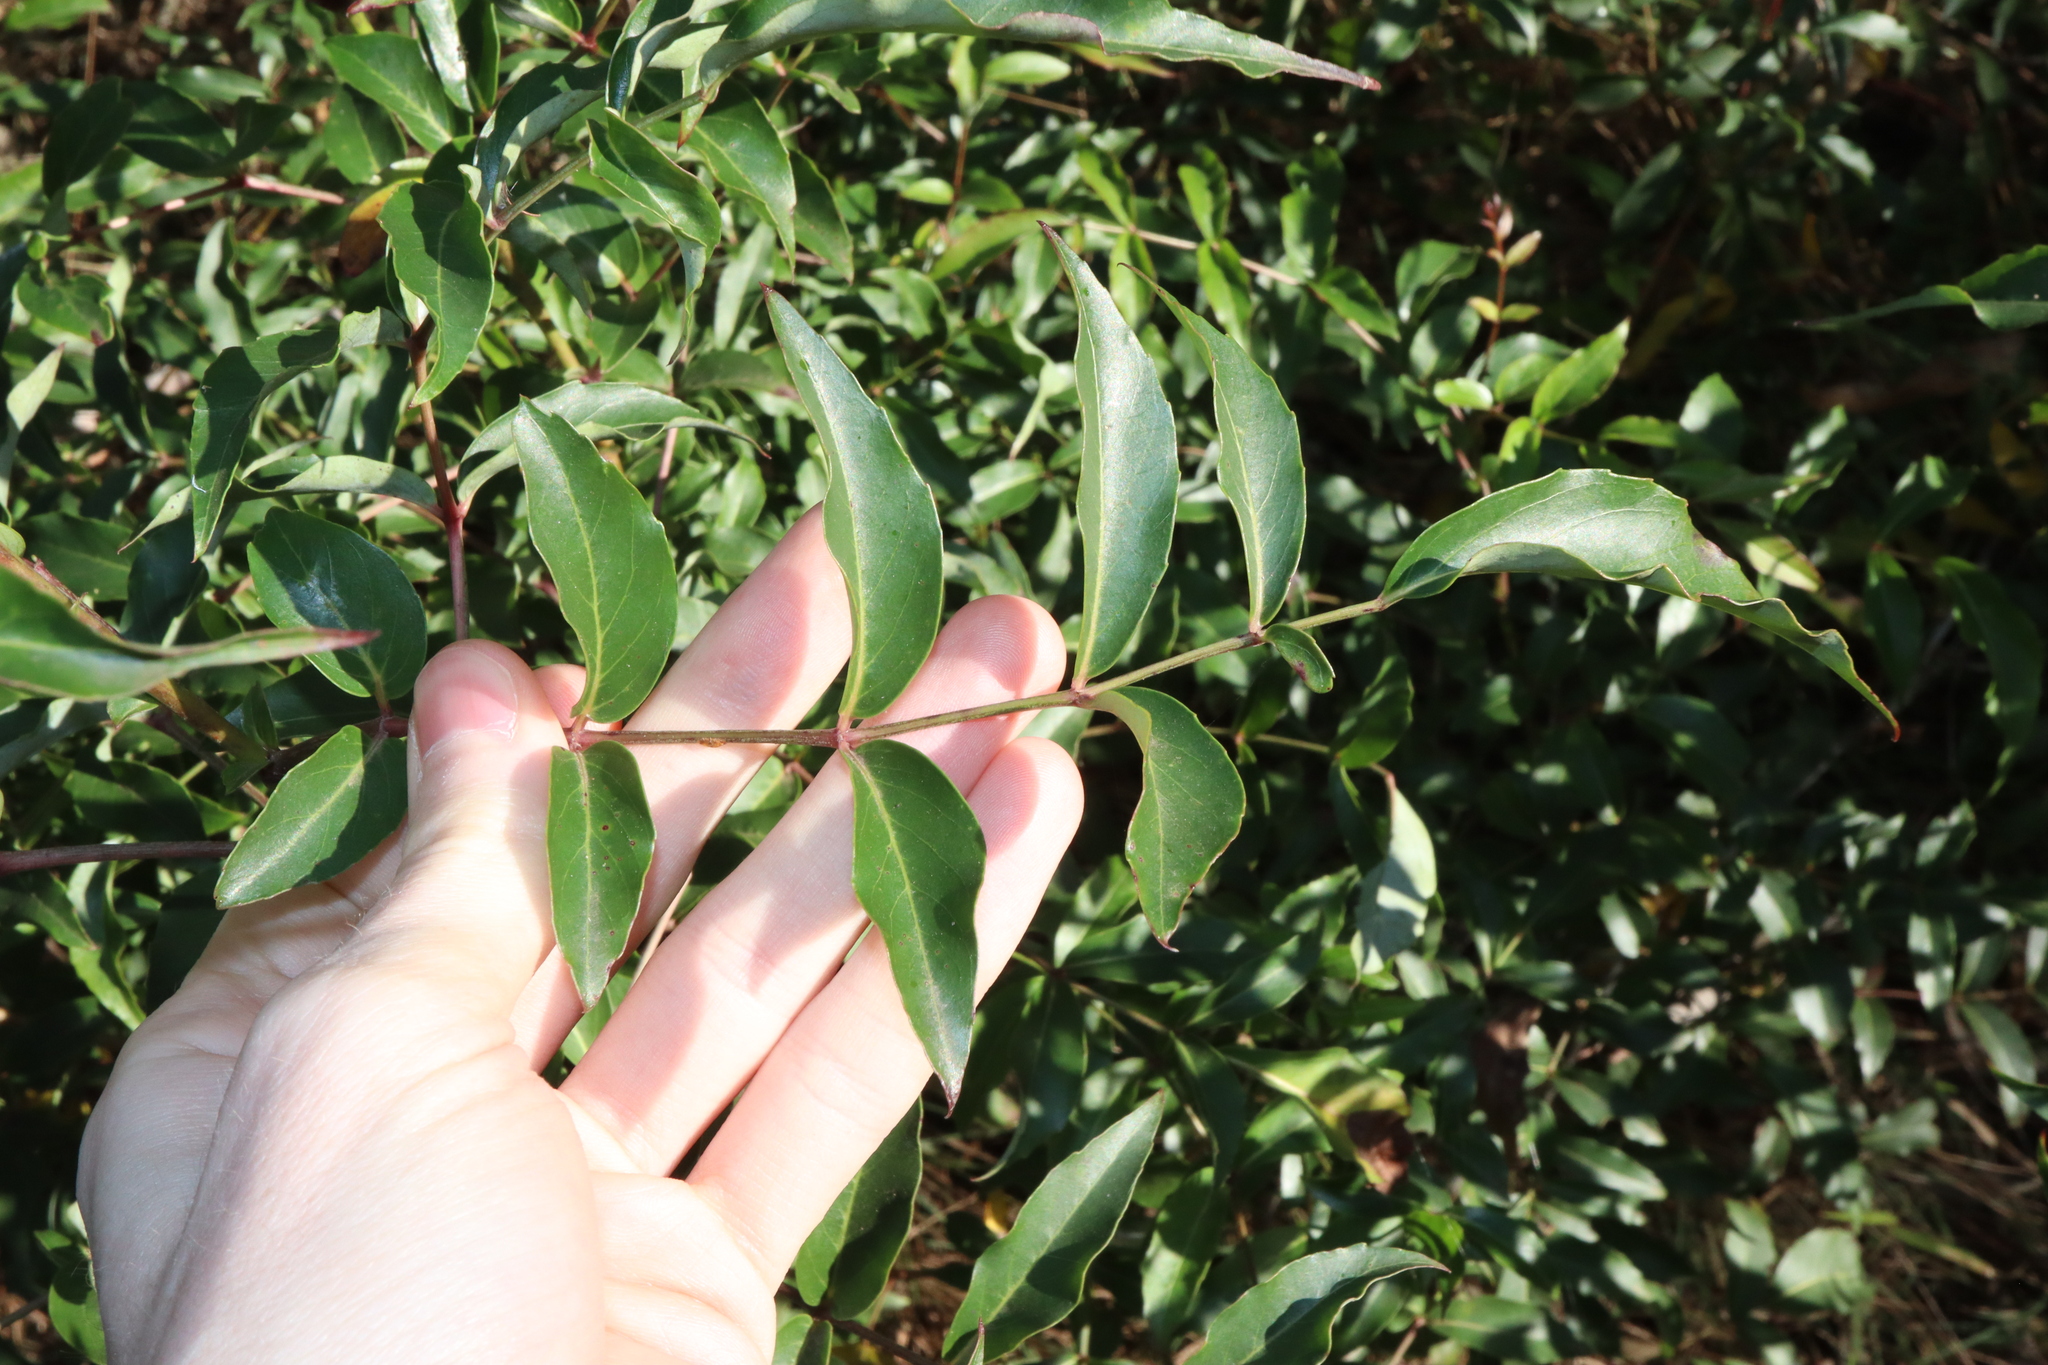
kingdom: Plantae
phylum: Tracheophyta
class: Magnoliopsida
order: Apiales
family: Araliaceae
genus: Polyscias
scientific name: Polyscias sambucifolia
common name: Elderberry-ash
